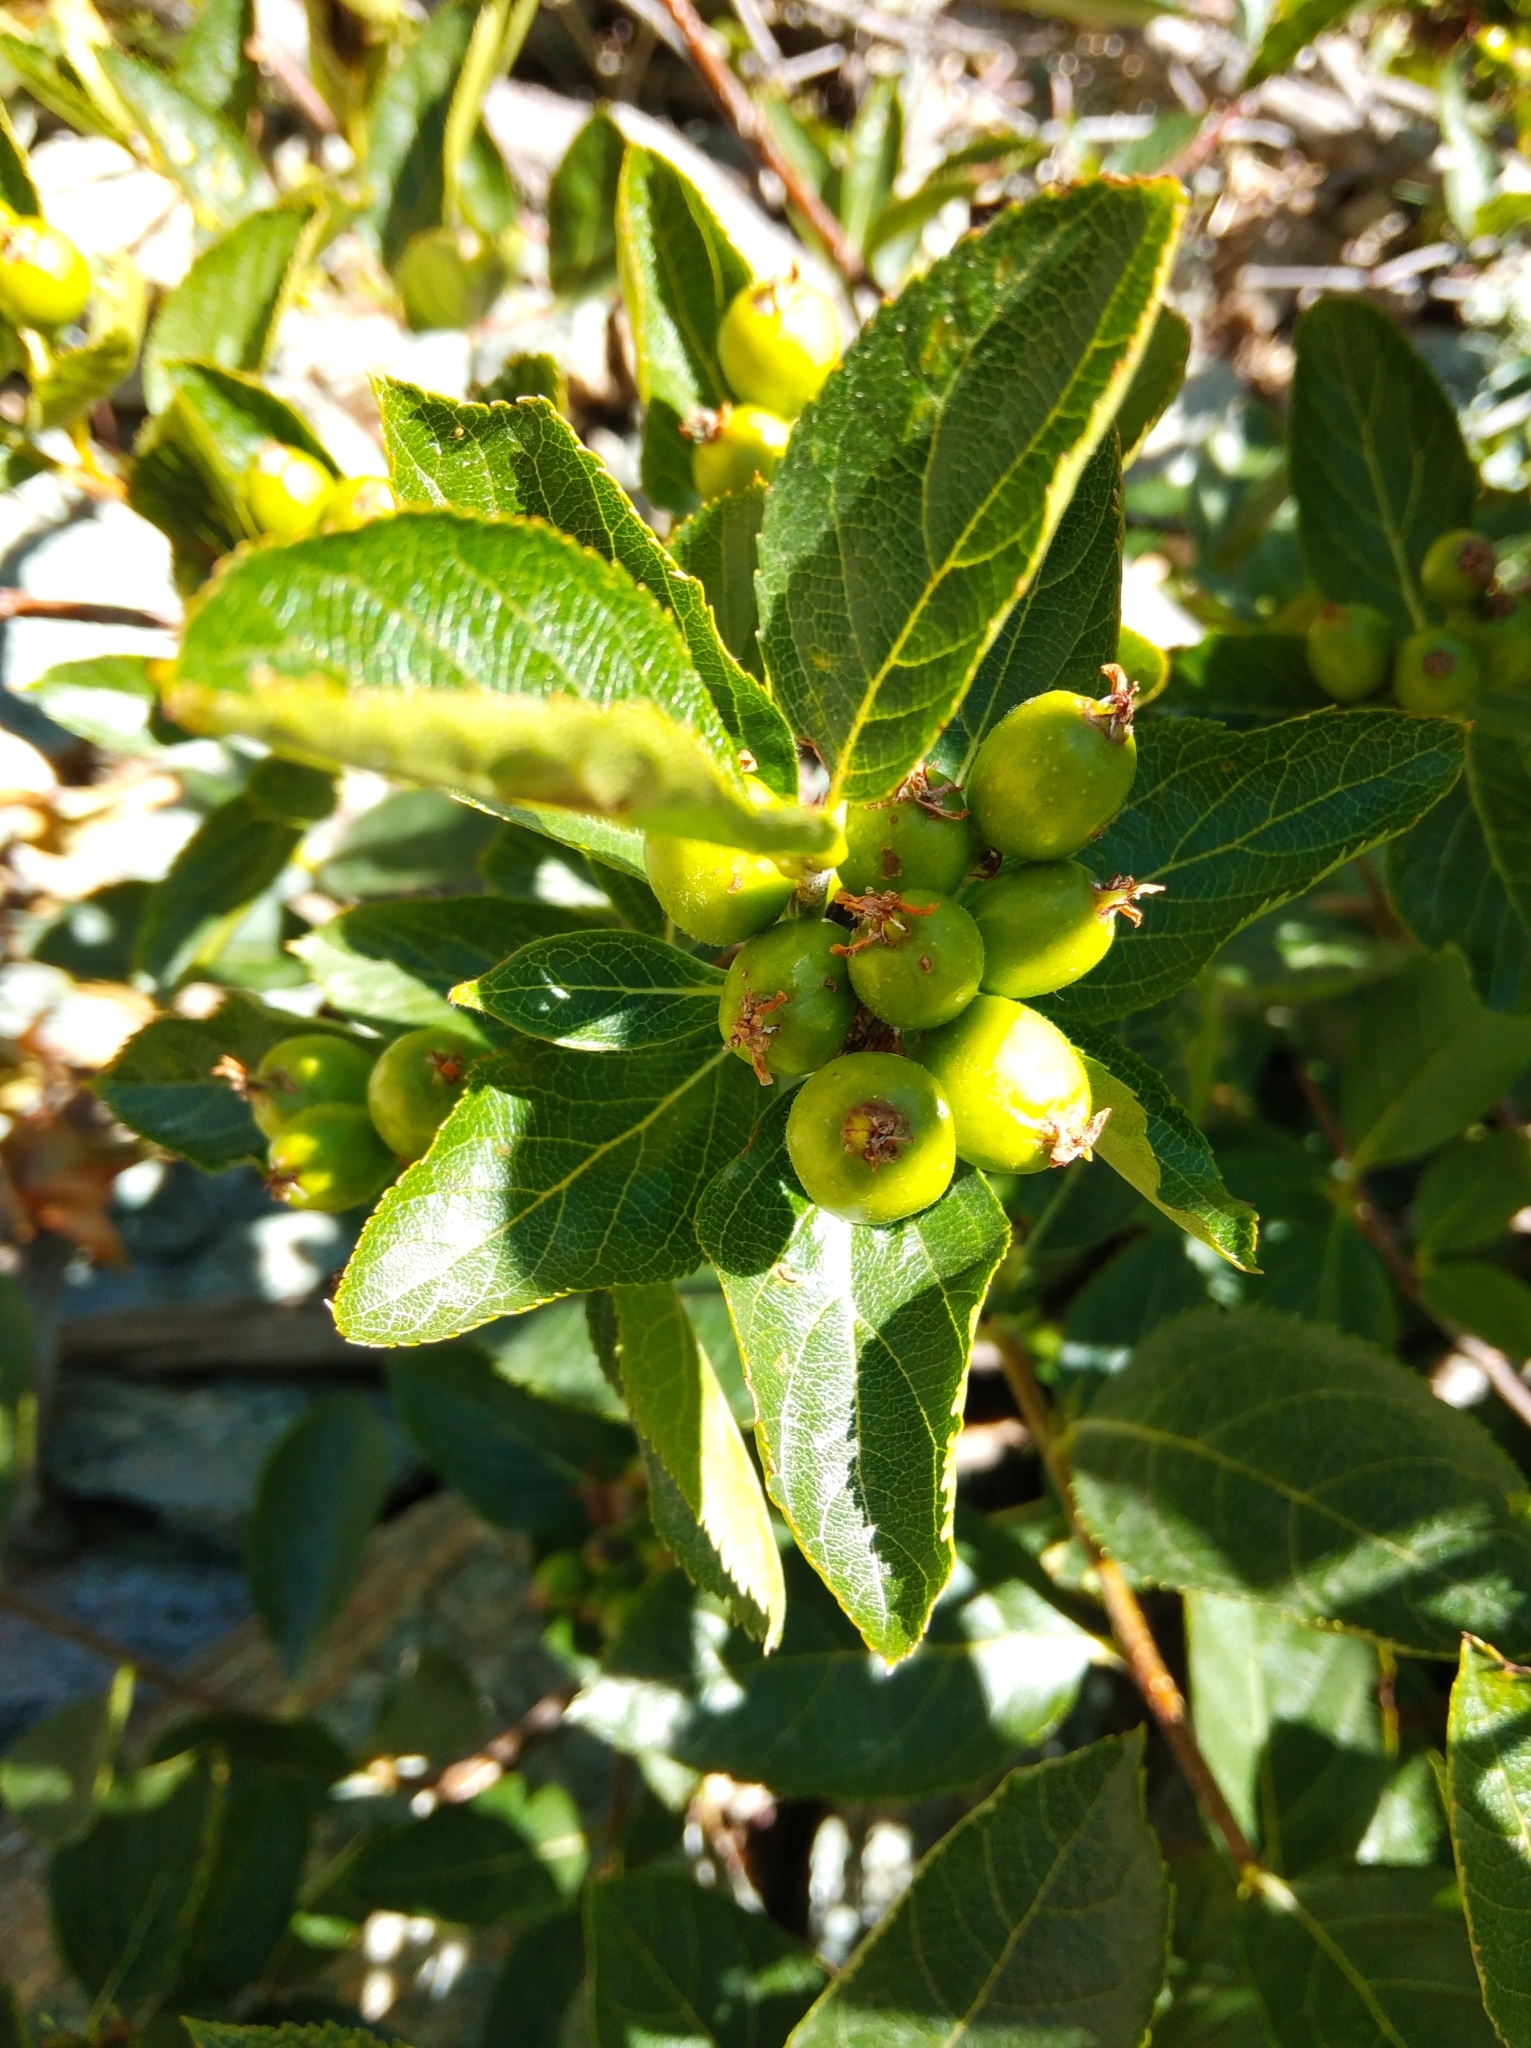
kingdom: Plantae
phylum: Tracheophyta
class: Magnoliopsida
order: Rosales
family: Rosaceae
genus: Chamaemespilus
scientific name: Chamaemespilus alpina
